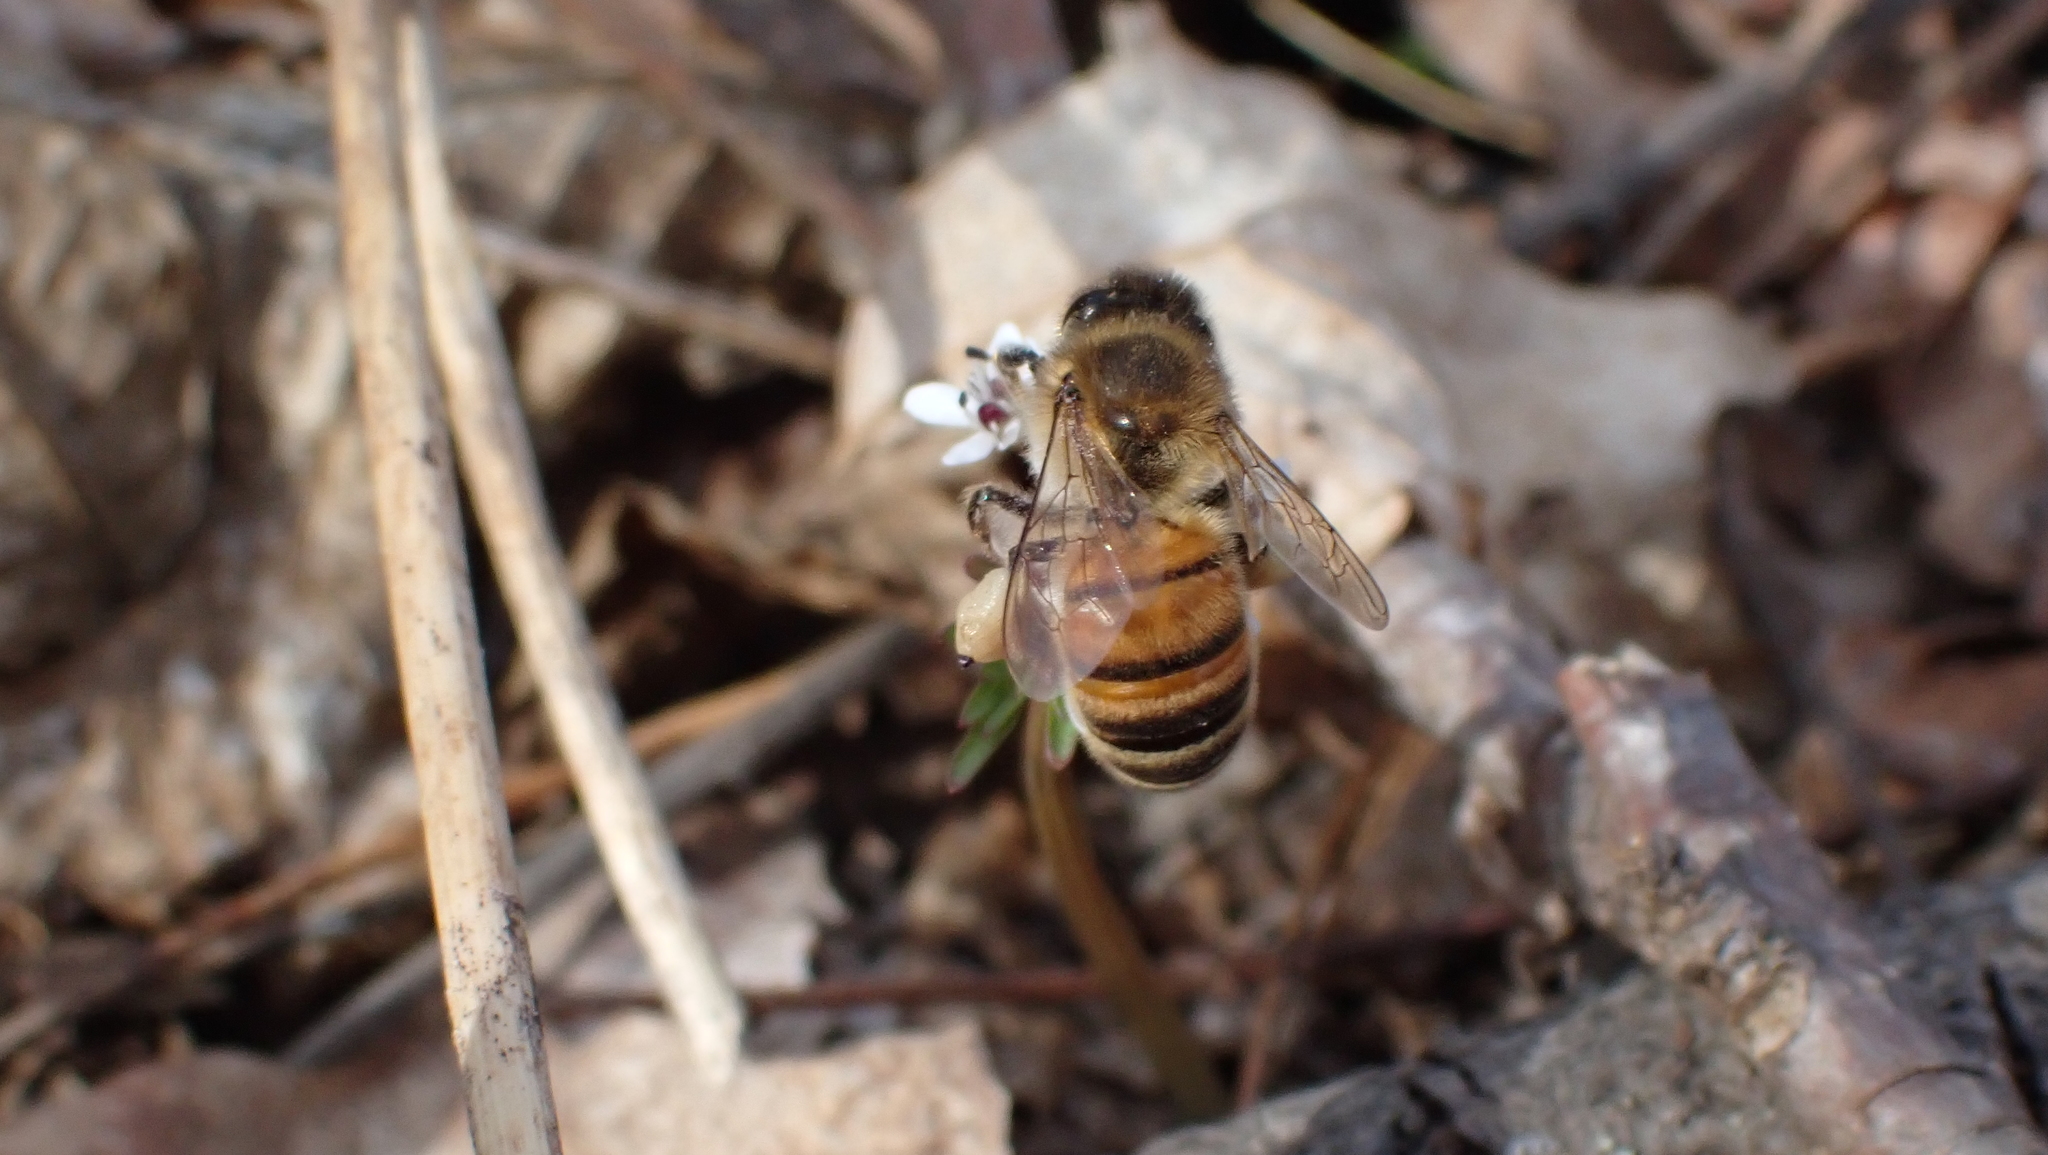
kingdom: Animalia
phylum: Arthropoda
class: Insecta
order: Hymenoptera
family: Apidae
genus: Apis
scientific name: Apis mellifera
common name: Honey bee
